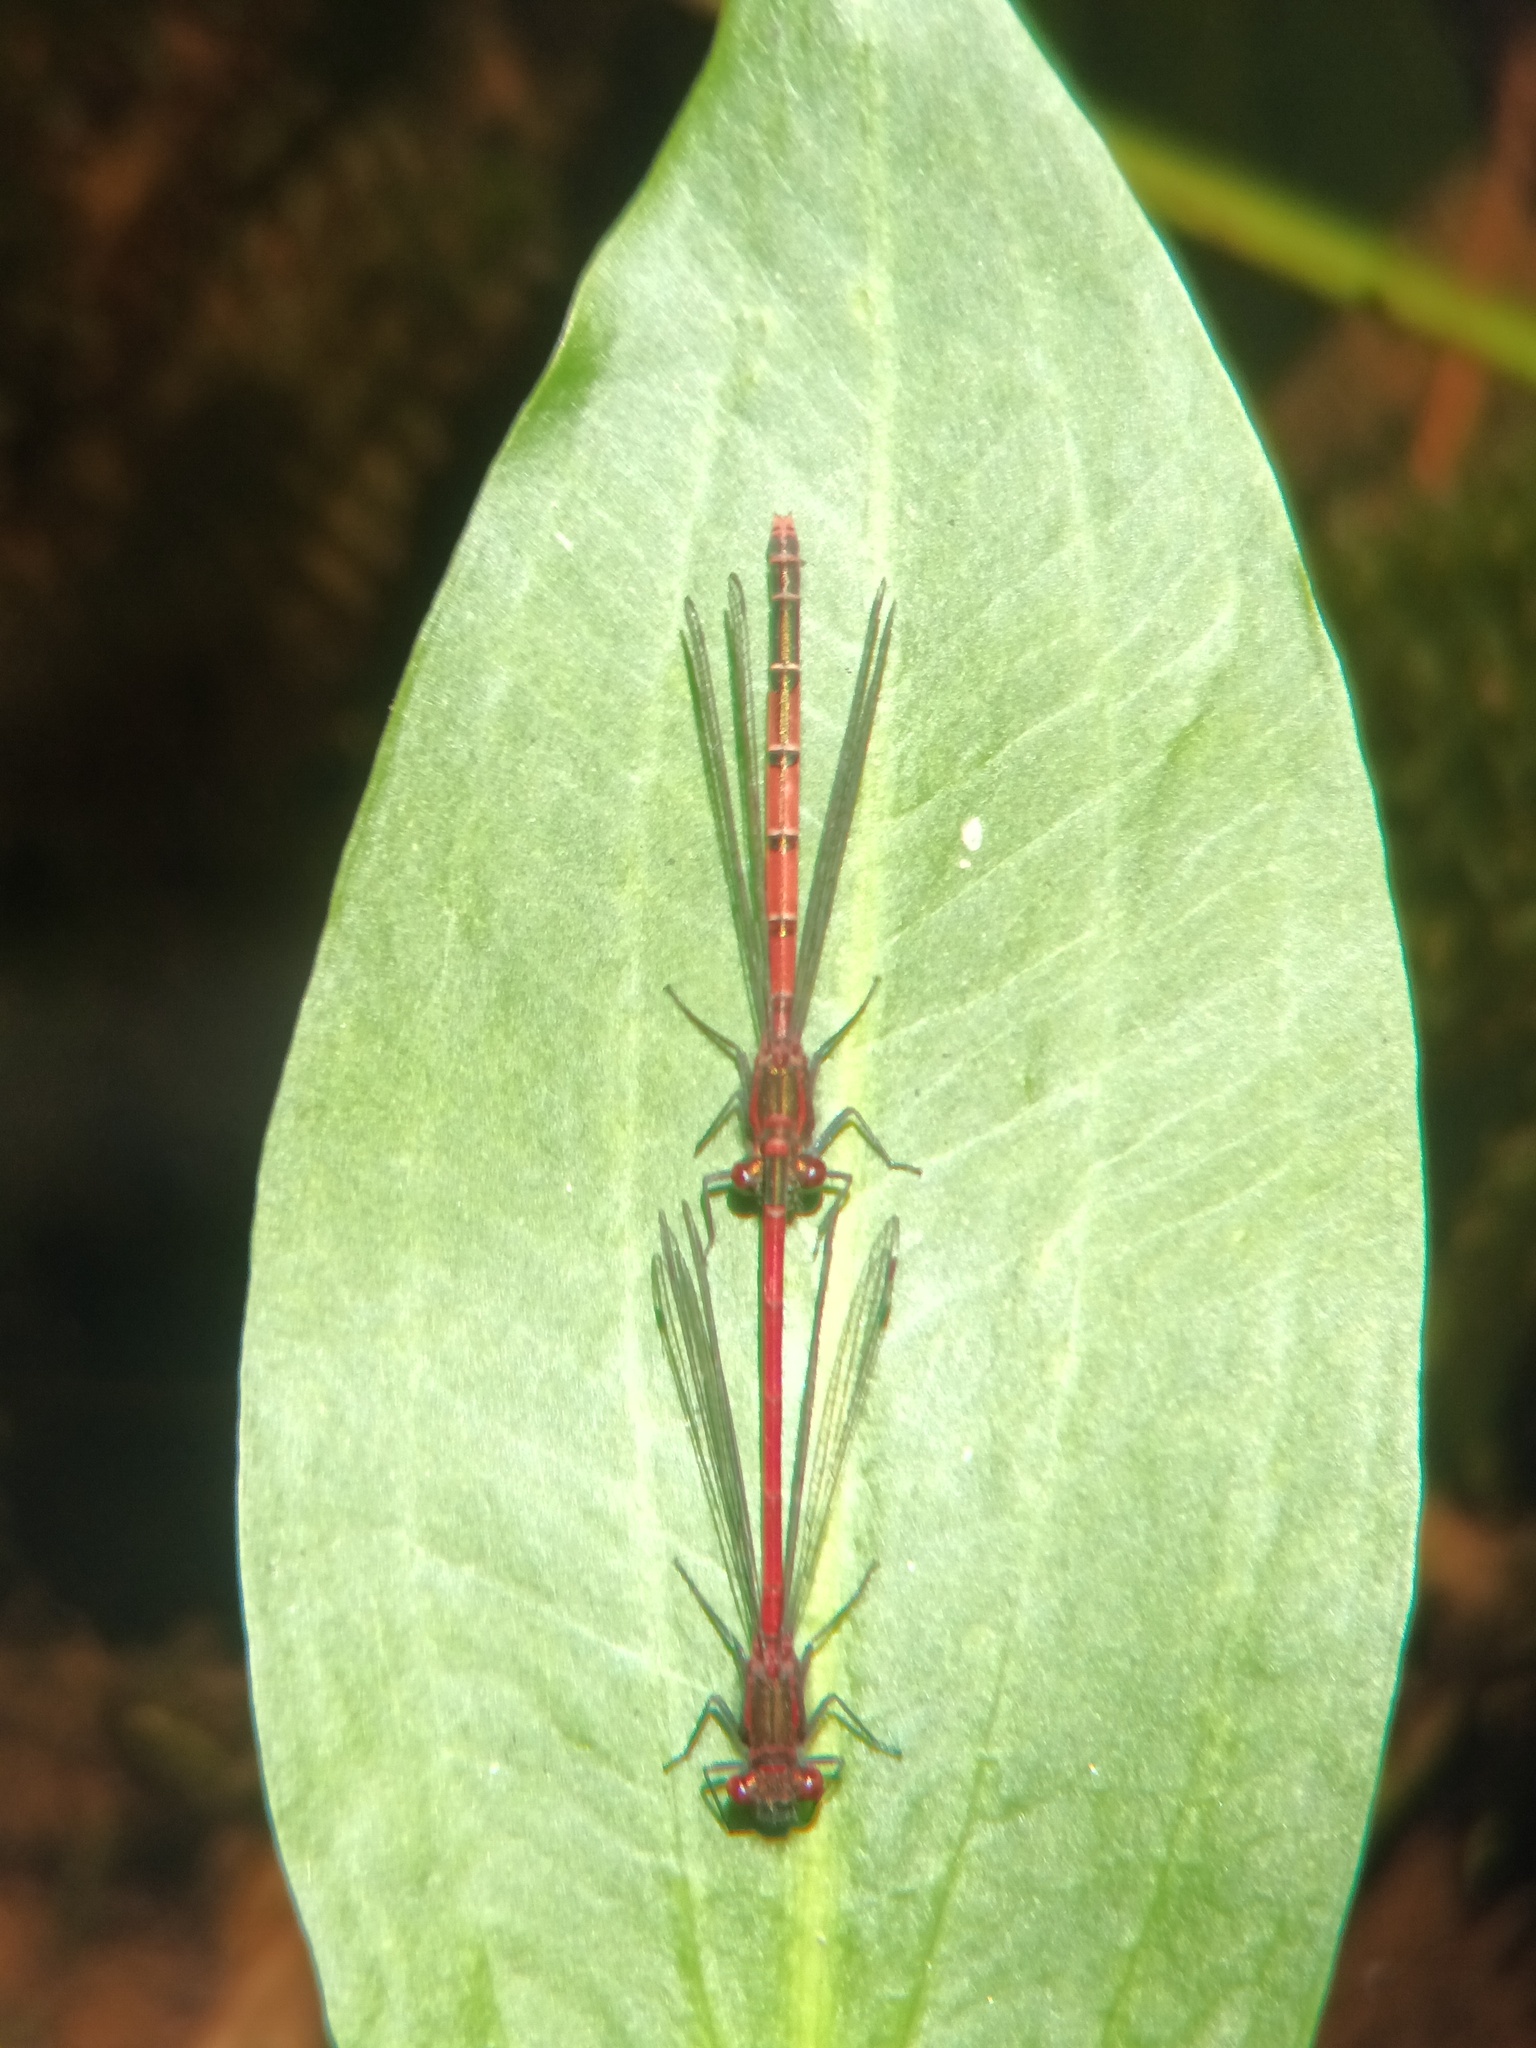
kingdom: Animalia
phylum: Arthropoda
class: Insecta
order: Odonata
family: Coenagrionidae
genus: Pyrrhosoma
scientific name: Pyrrhosoma nymphula
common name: Large red damsel
